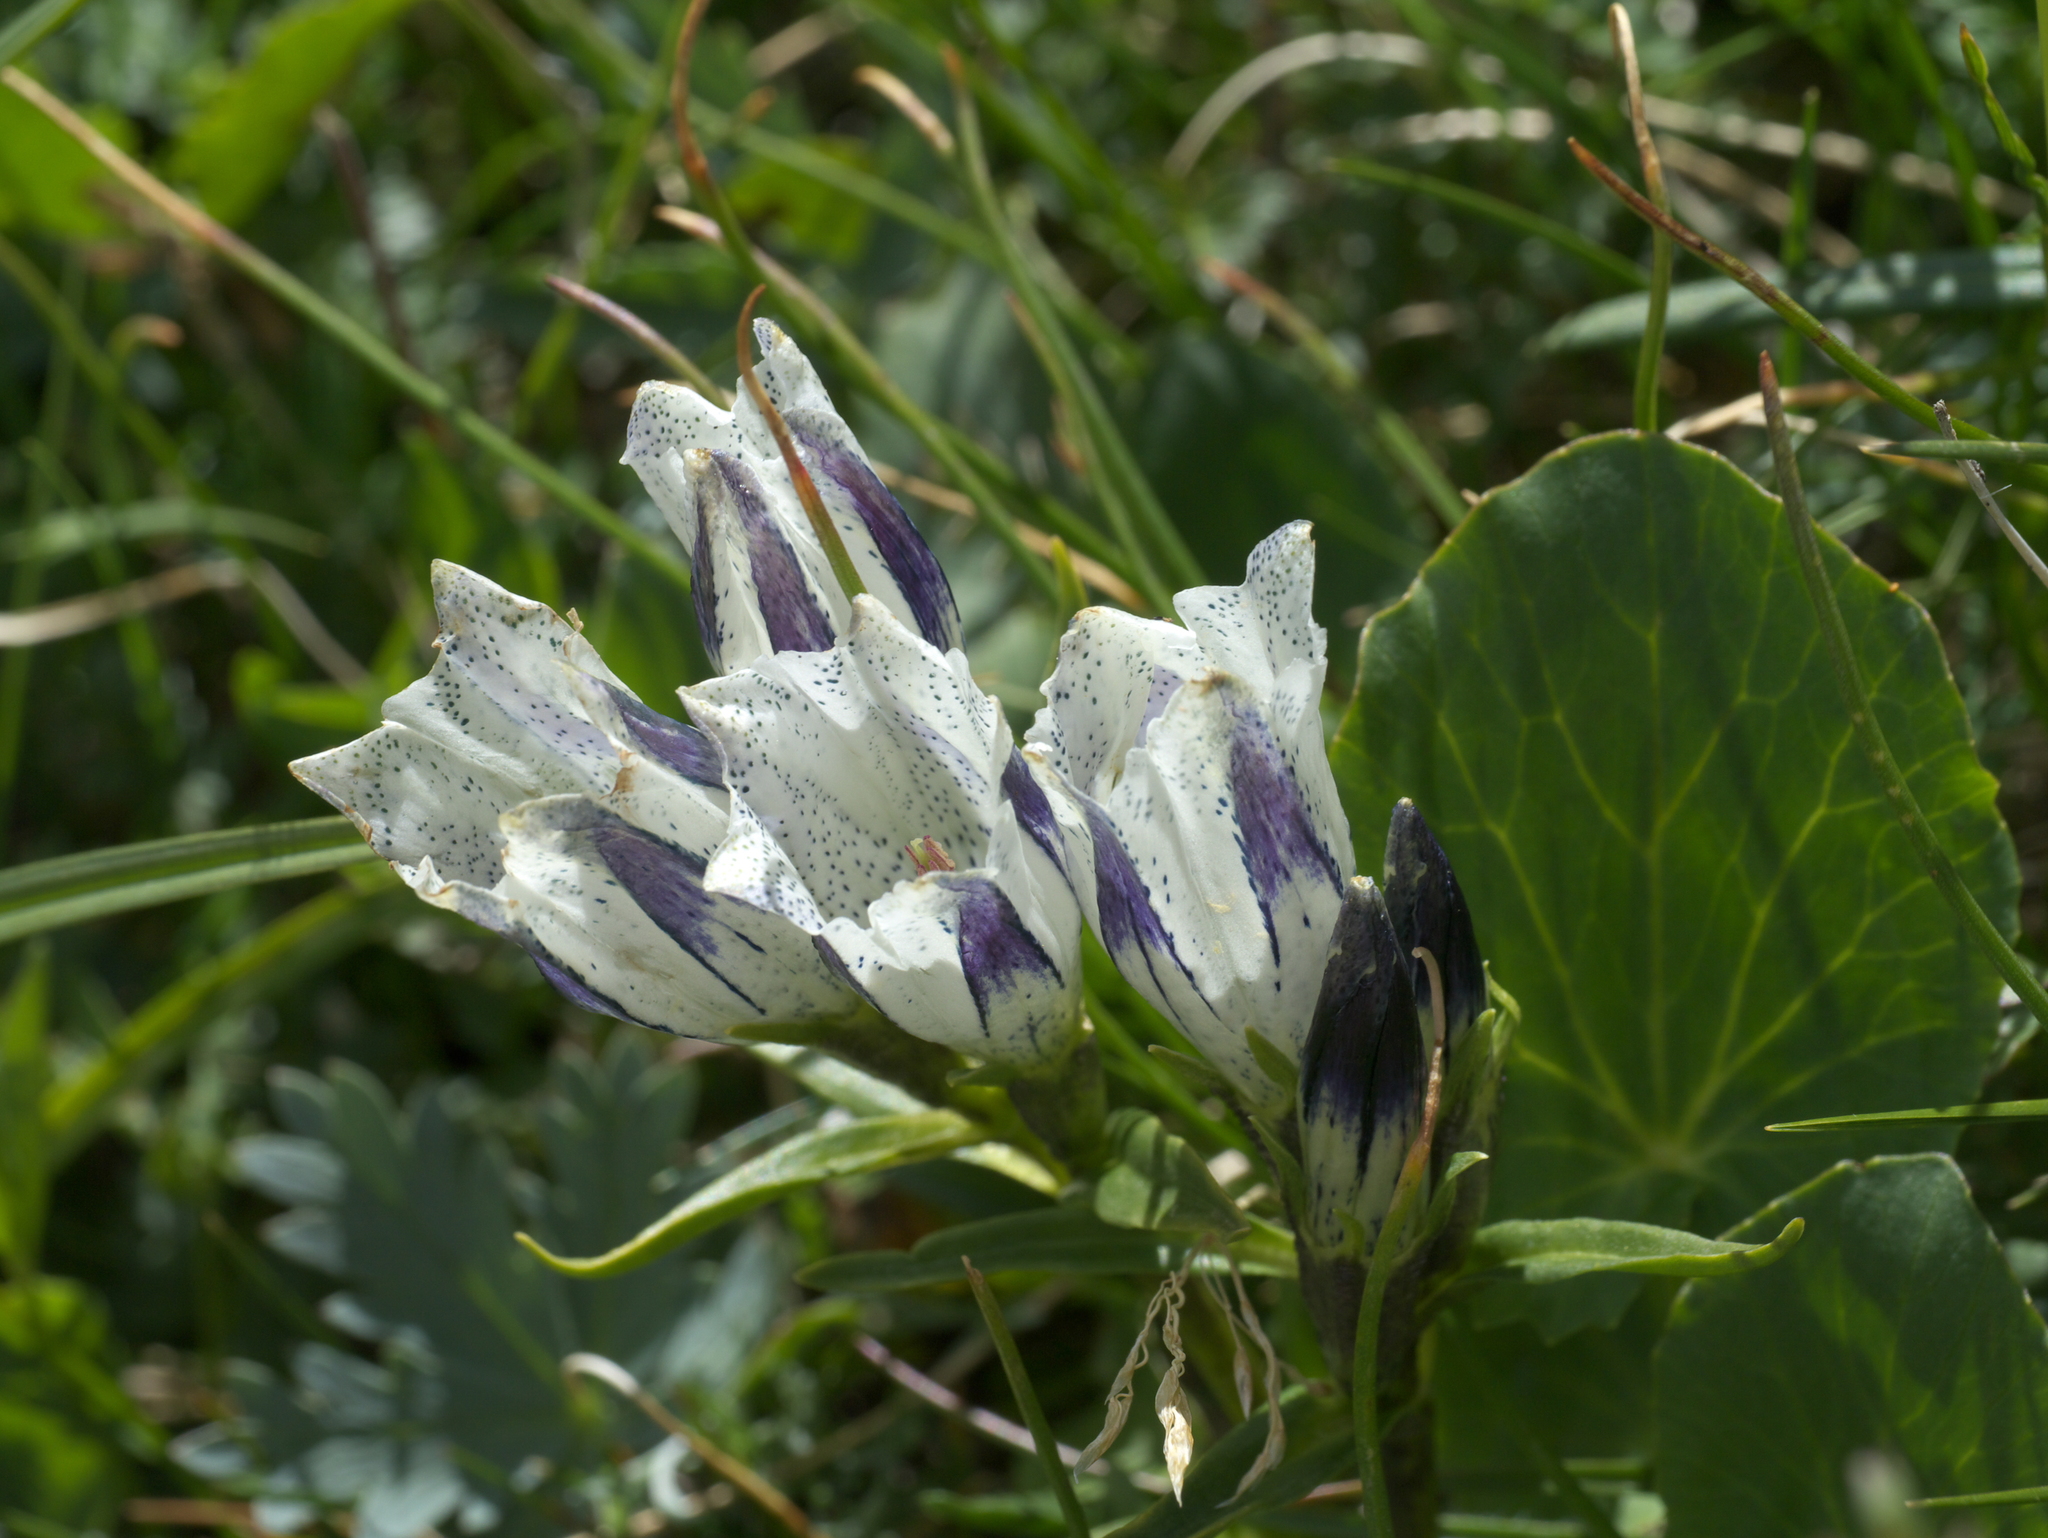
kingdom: Plantae
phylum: Tracheophyta
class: Magnoliopsida
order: Gentianales
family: Gentianaceae
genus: Gentiana
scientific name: Gentiana algida
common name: Arctic gentian
